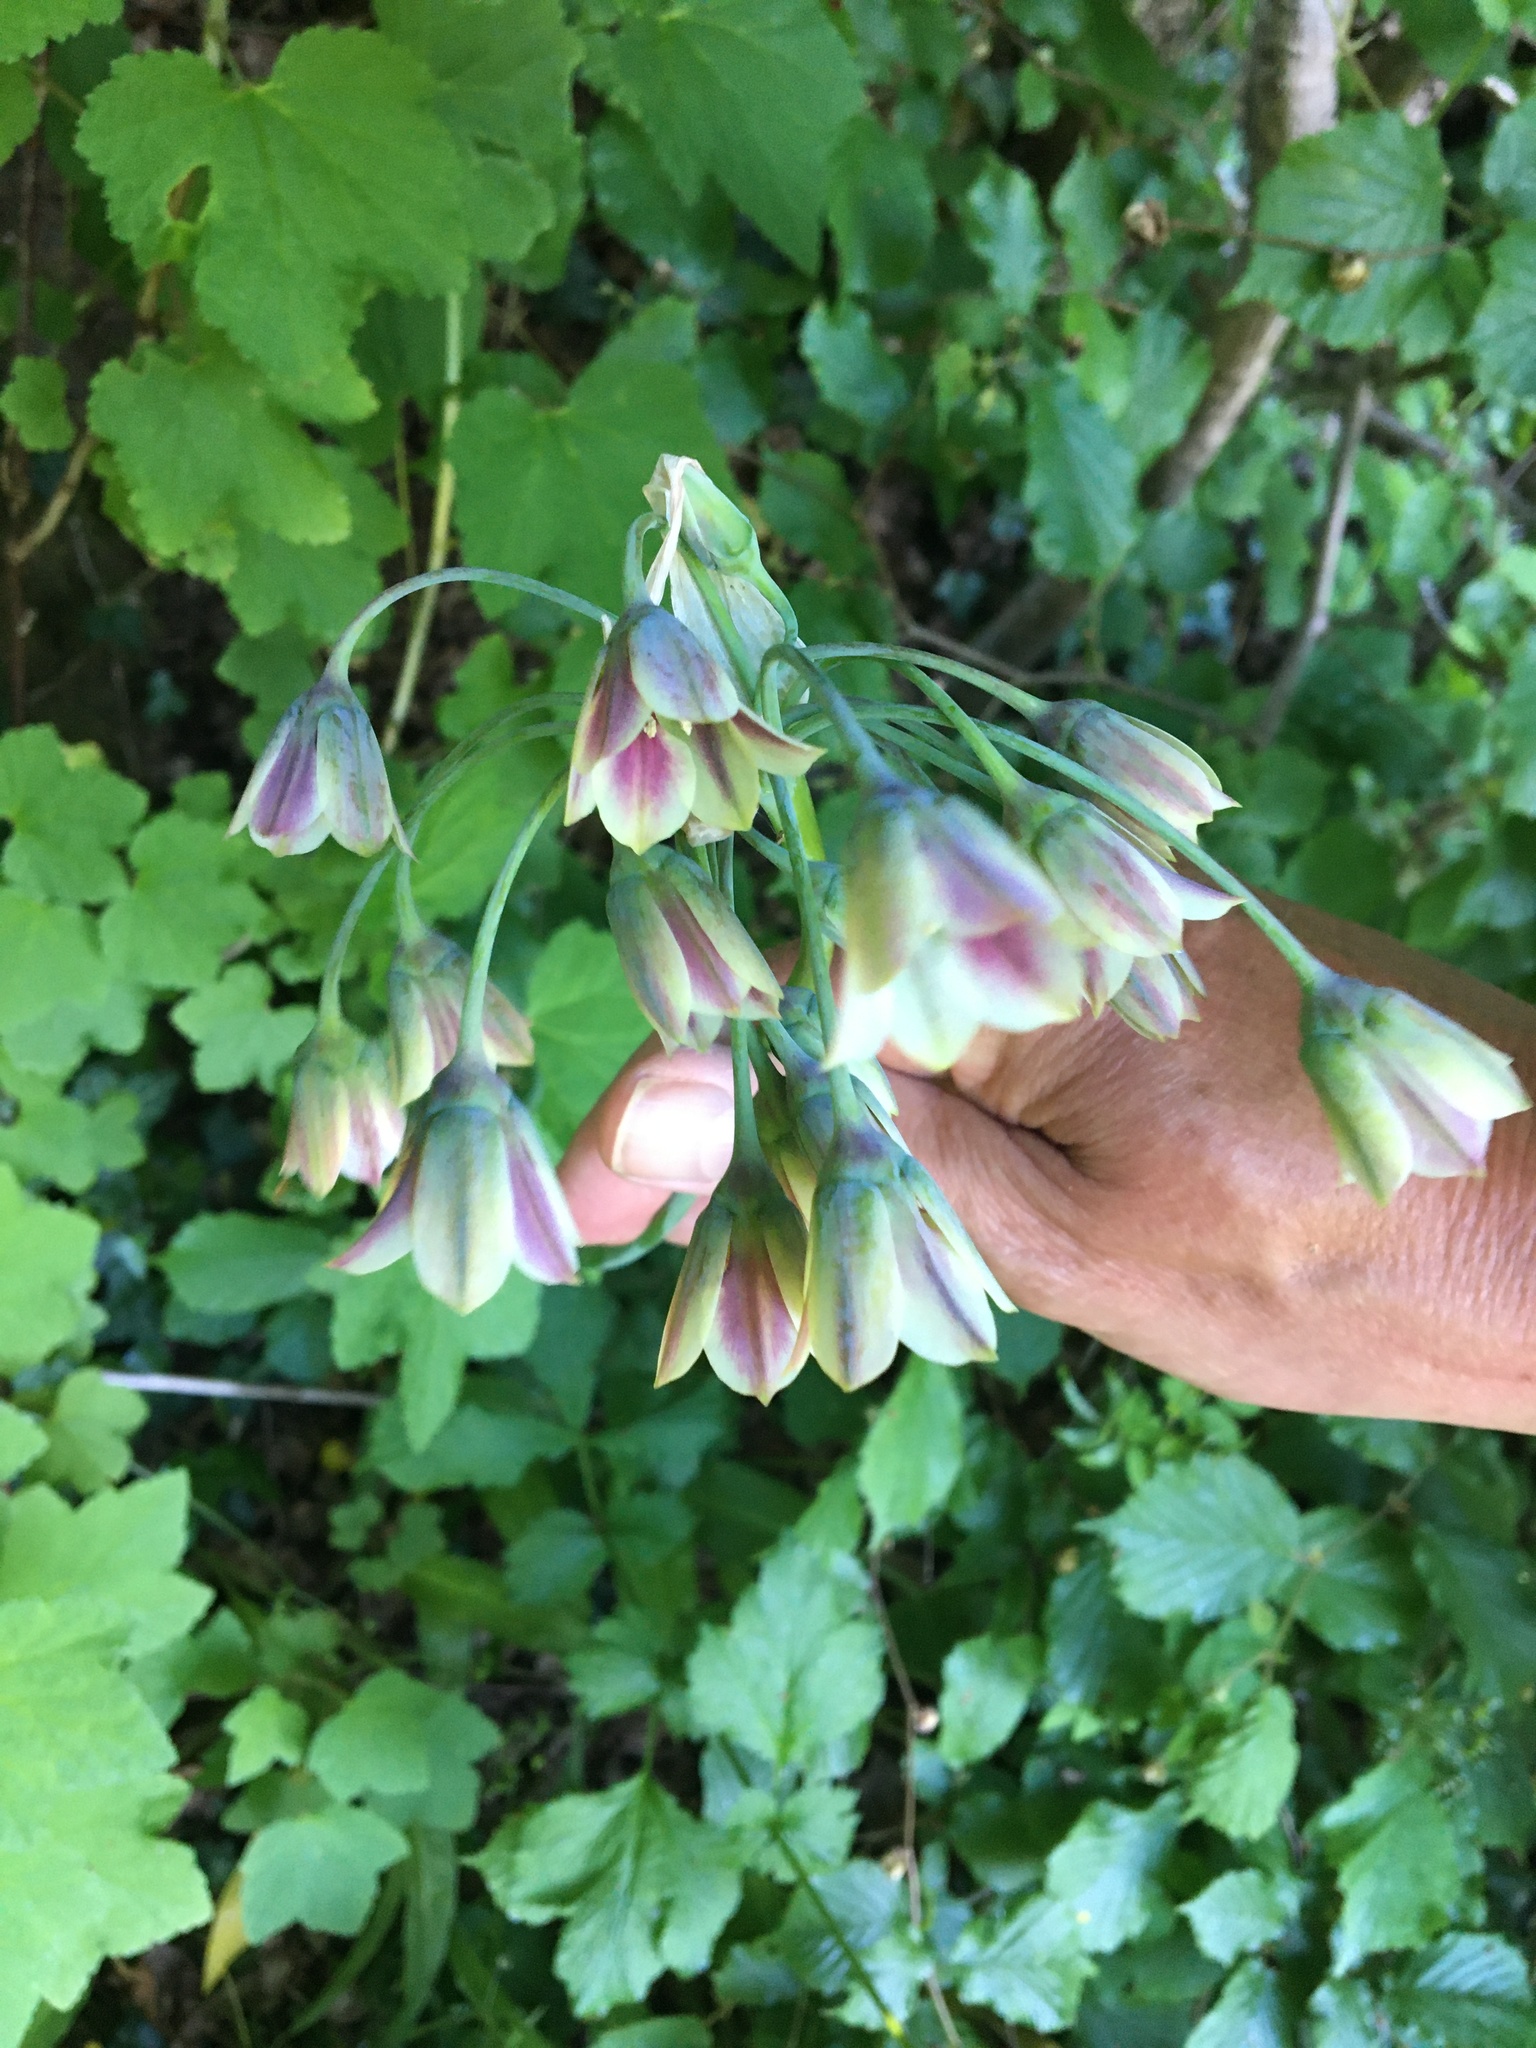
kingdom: Plantae
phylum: Tracheophyta
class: Liliopsida
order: Asparagales
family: Amaryllidaceae
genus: Allium
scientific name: Allium siculum
